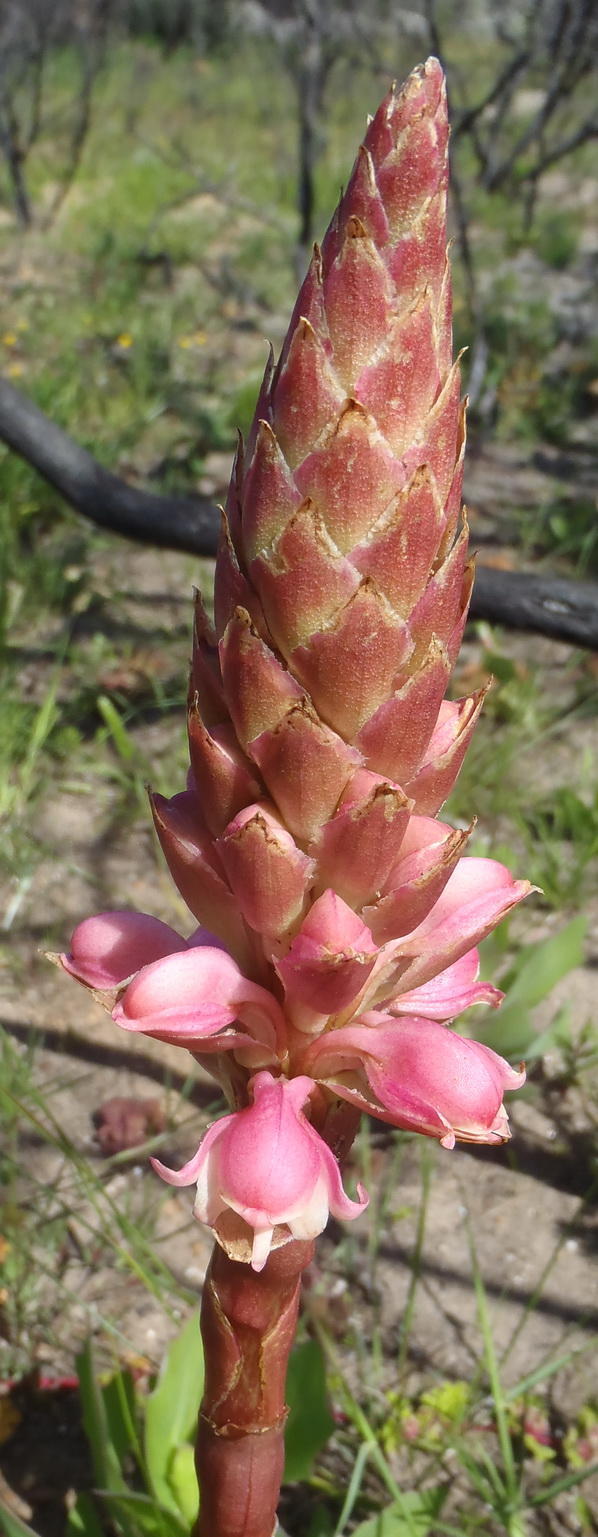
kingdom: Plantae
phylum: Tracheophyta
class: Liliopsida
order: Asparagales
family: Orchidaceae
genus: Satyrium
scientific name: Satyrium carneum
